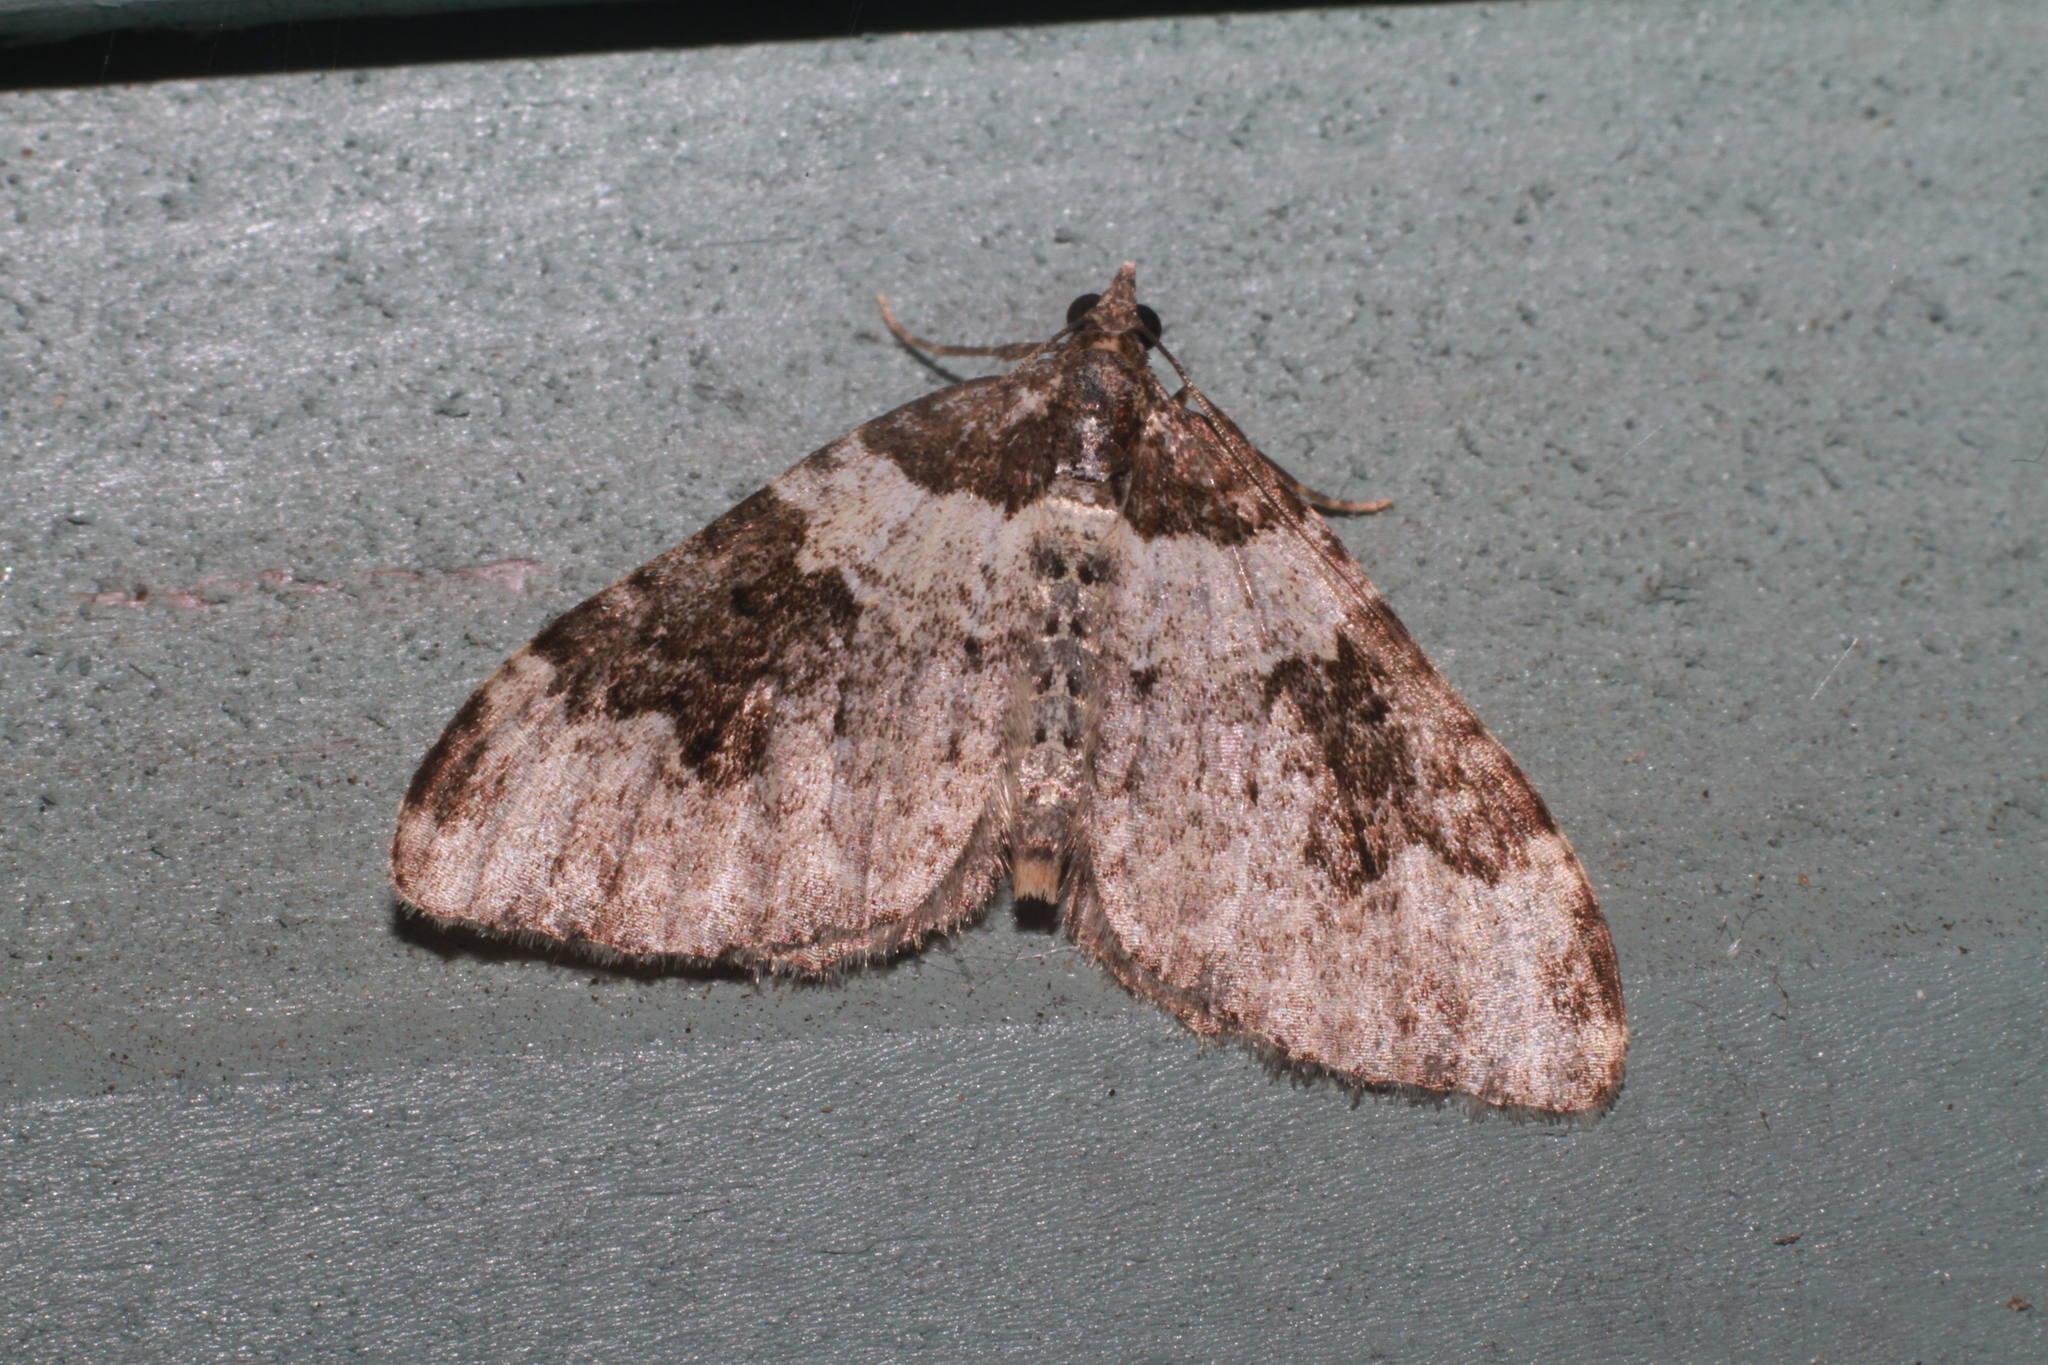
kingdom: Animalia
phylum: Arthropoda
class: Insecta
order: Lepidoptera
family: Geometridae
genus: Xanthorhoe
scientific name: Xanthorhoe fluctuata
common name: Garden carpet
